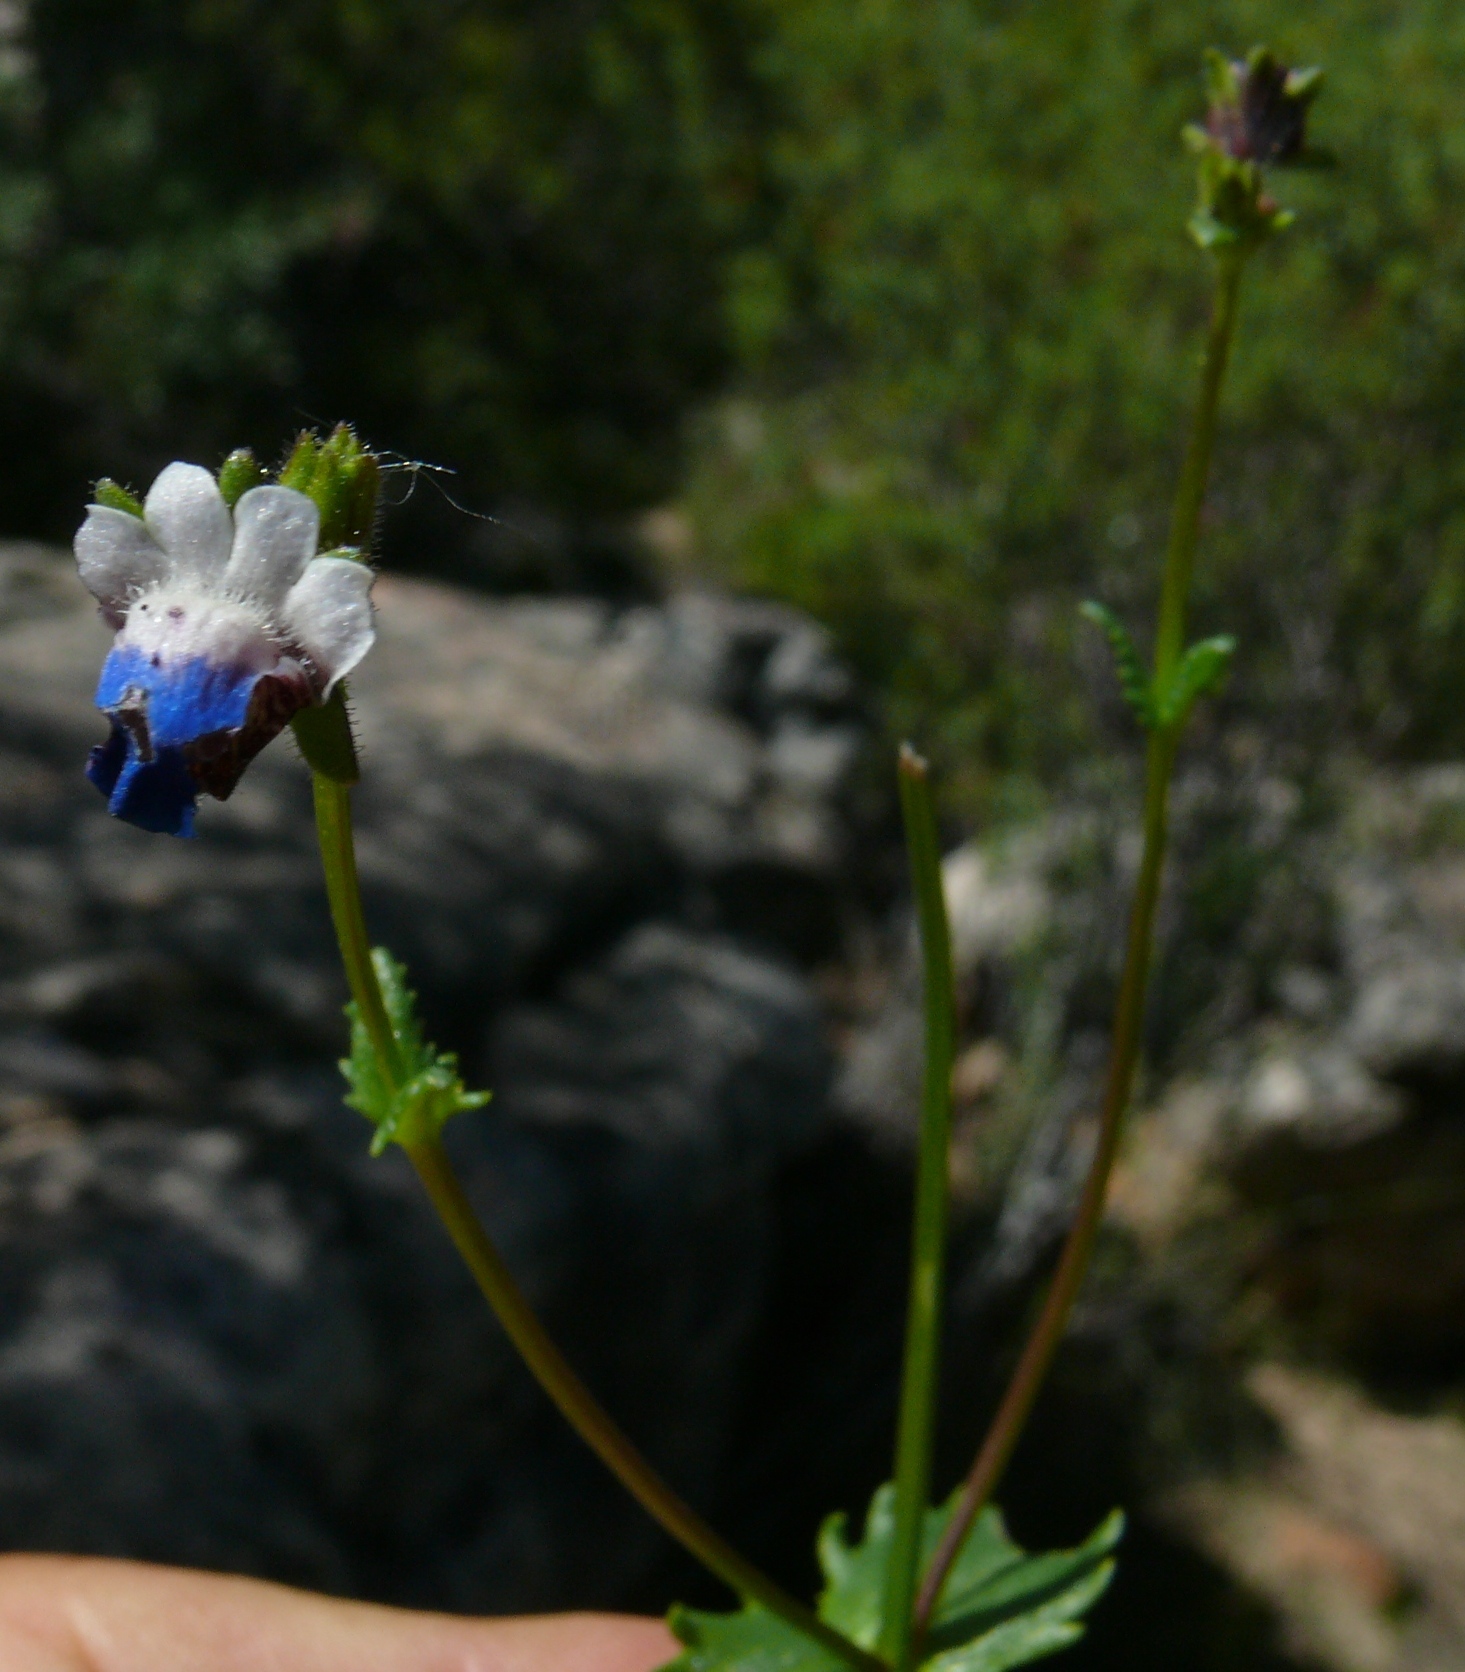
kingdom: Plantae
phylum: Tracheophyta
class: Magnoliopsida
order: Lamiales
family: Scrophulariaceae
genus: Nemesia
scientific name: Nemesia barbata
